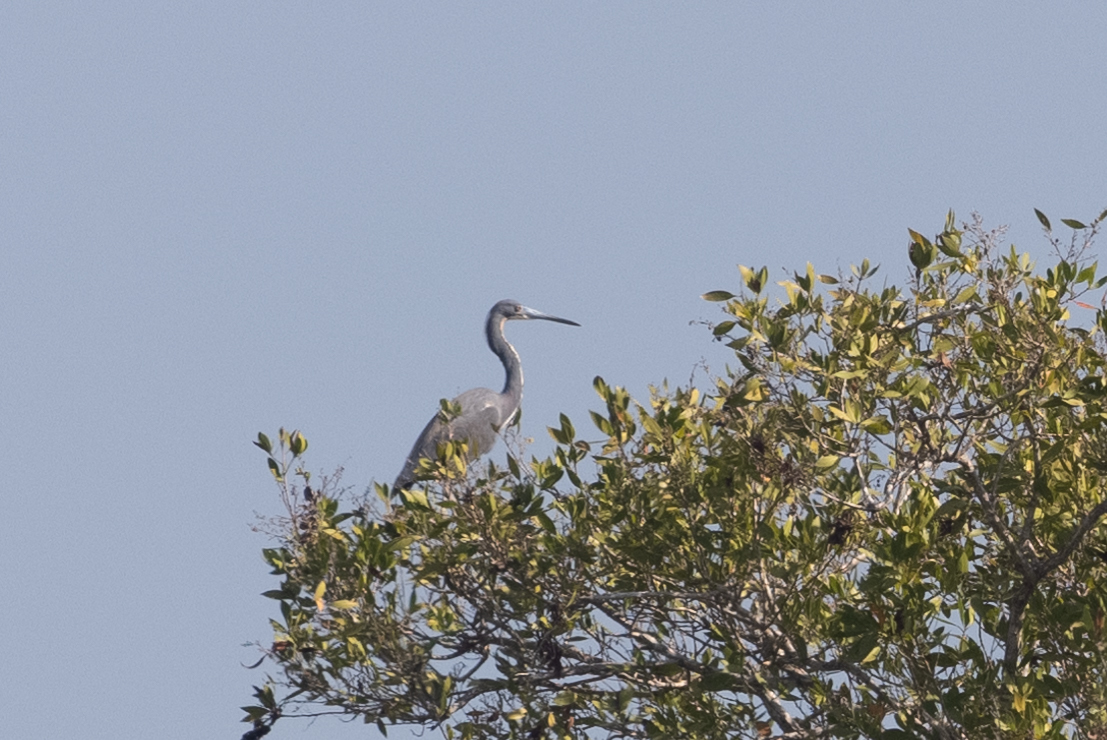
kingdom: Animalia
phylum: Chordata
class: Aves
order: Pelecaniformes
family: Ardeidae
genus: Egretta
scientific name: Egretta tricolor
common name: Tricolored heron
